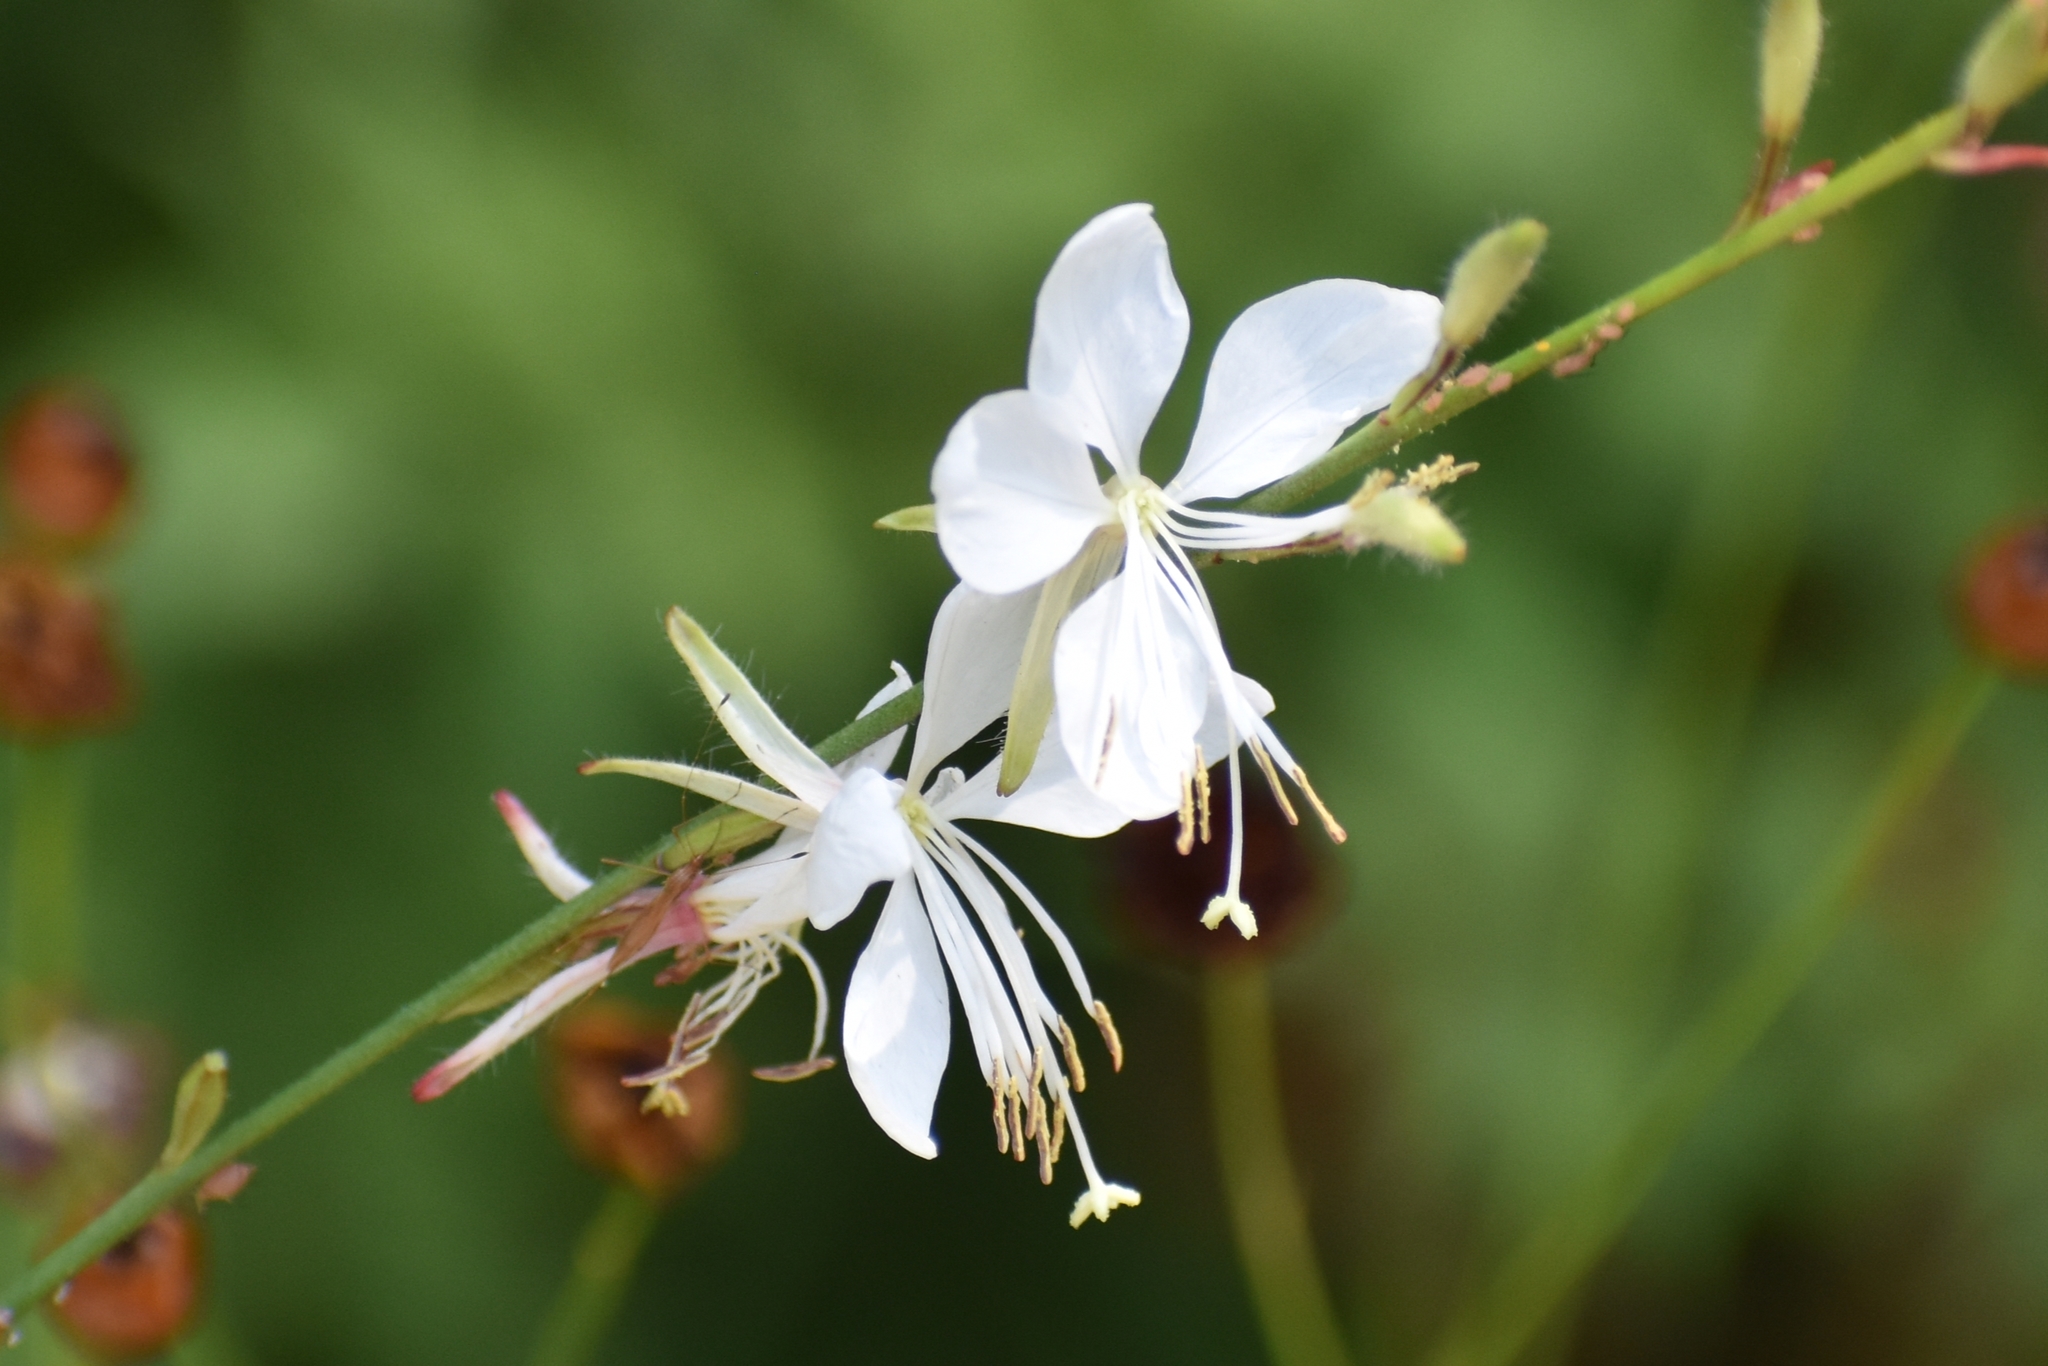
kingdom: Plantae
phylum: Tracheophyta
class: Magnoliopsida
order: Myrtales
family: Onagraceae
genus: Oenothera
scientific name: Oenothera lindheimeri
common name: Lindheimer's beeblossom
